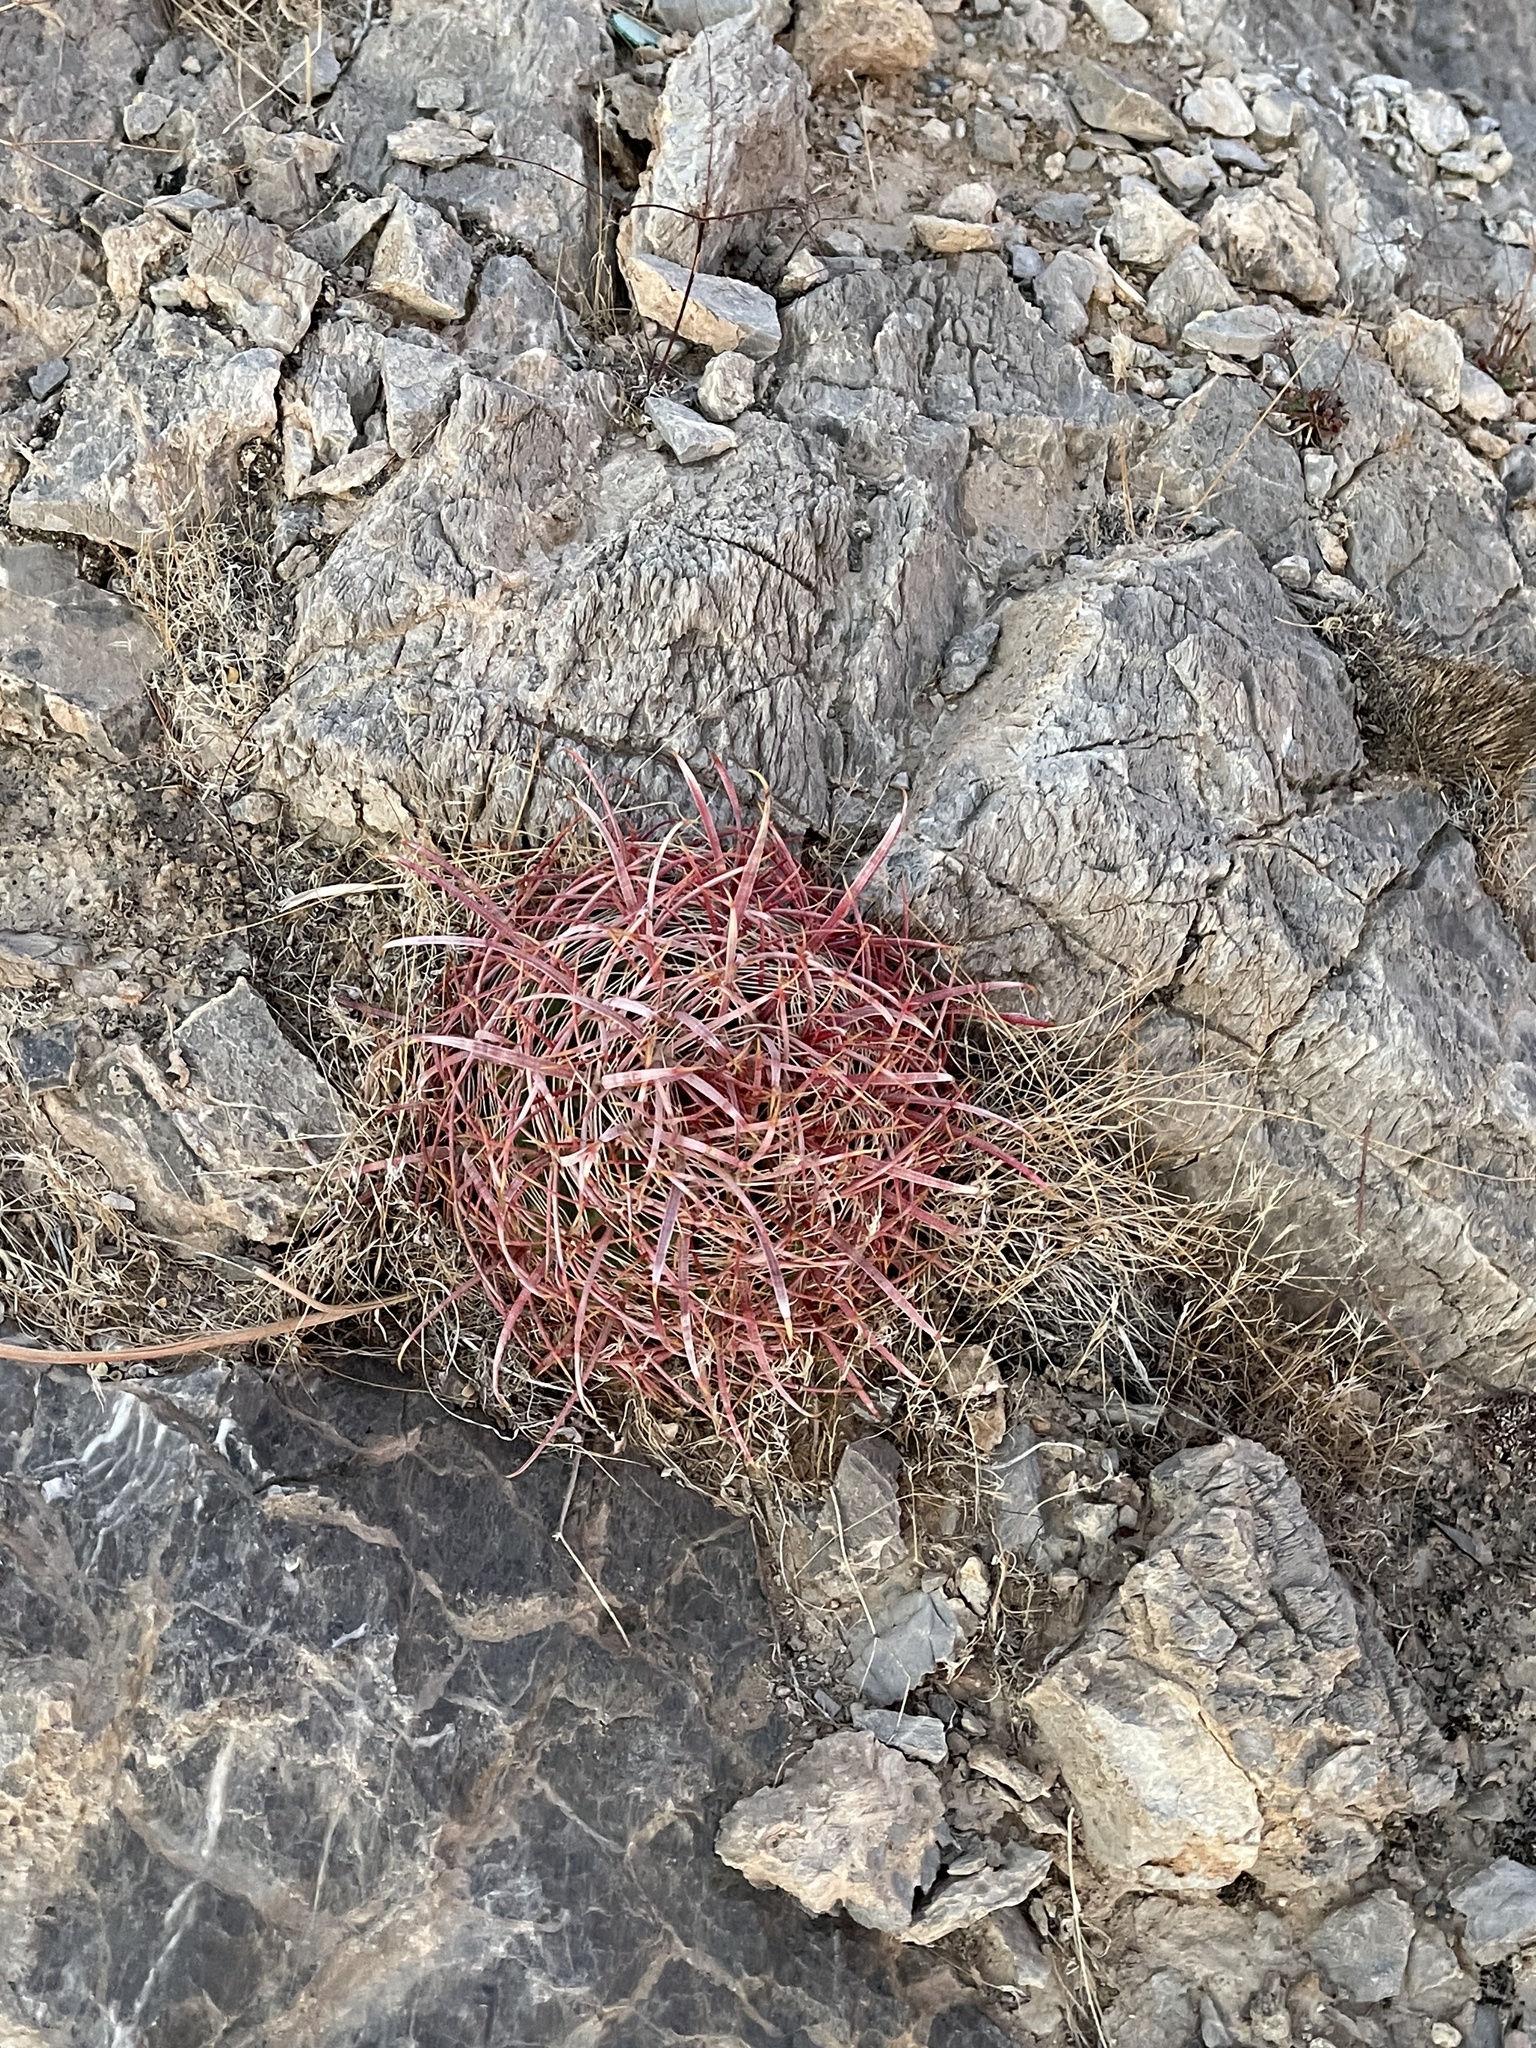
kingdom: Plantae
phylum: Tracheophyta
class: Magnoliopsida
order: Caryophyllales
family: Cactaceae
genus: Ferocactus
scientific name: Ferocactus cylindraceus
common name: California barrel cactus
